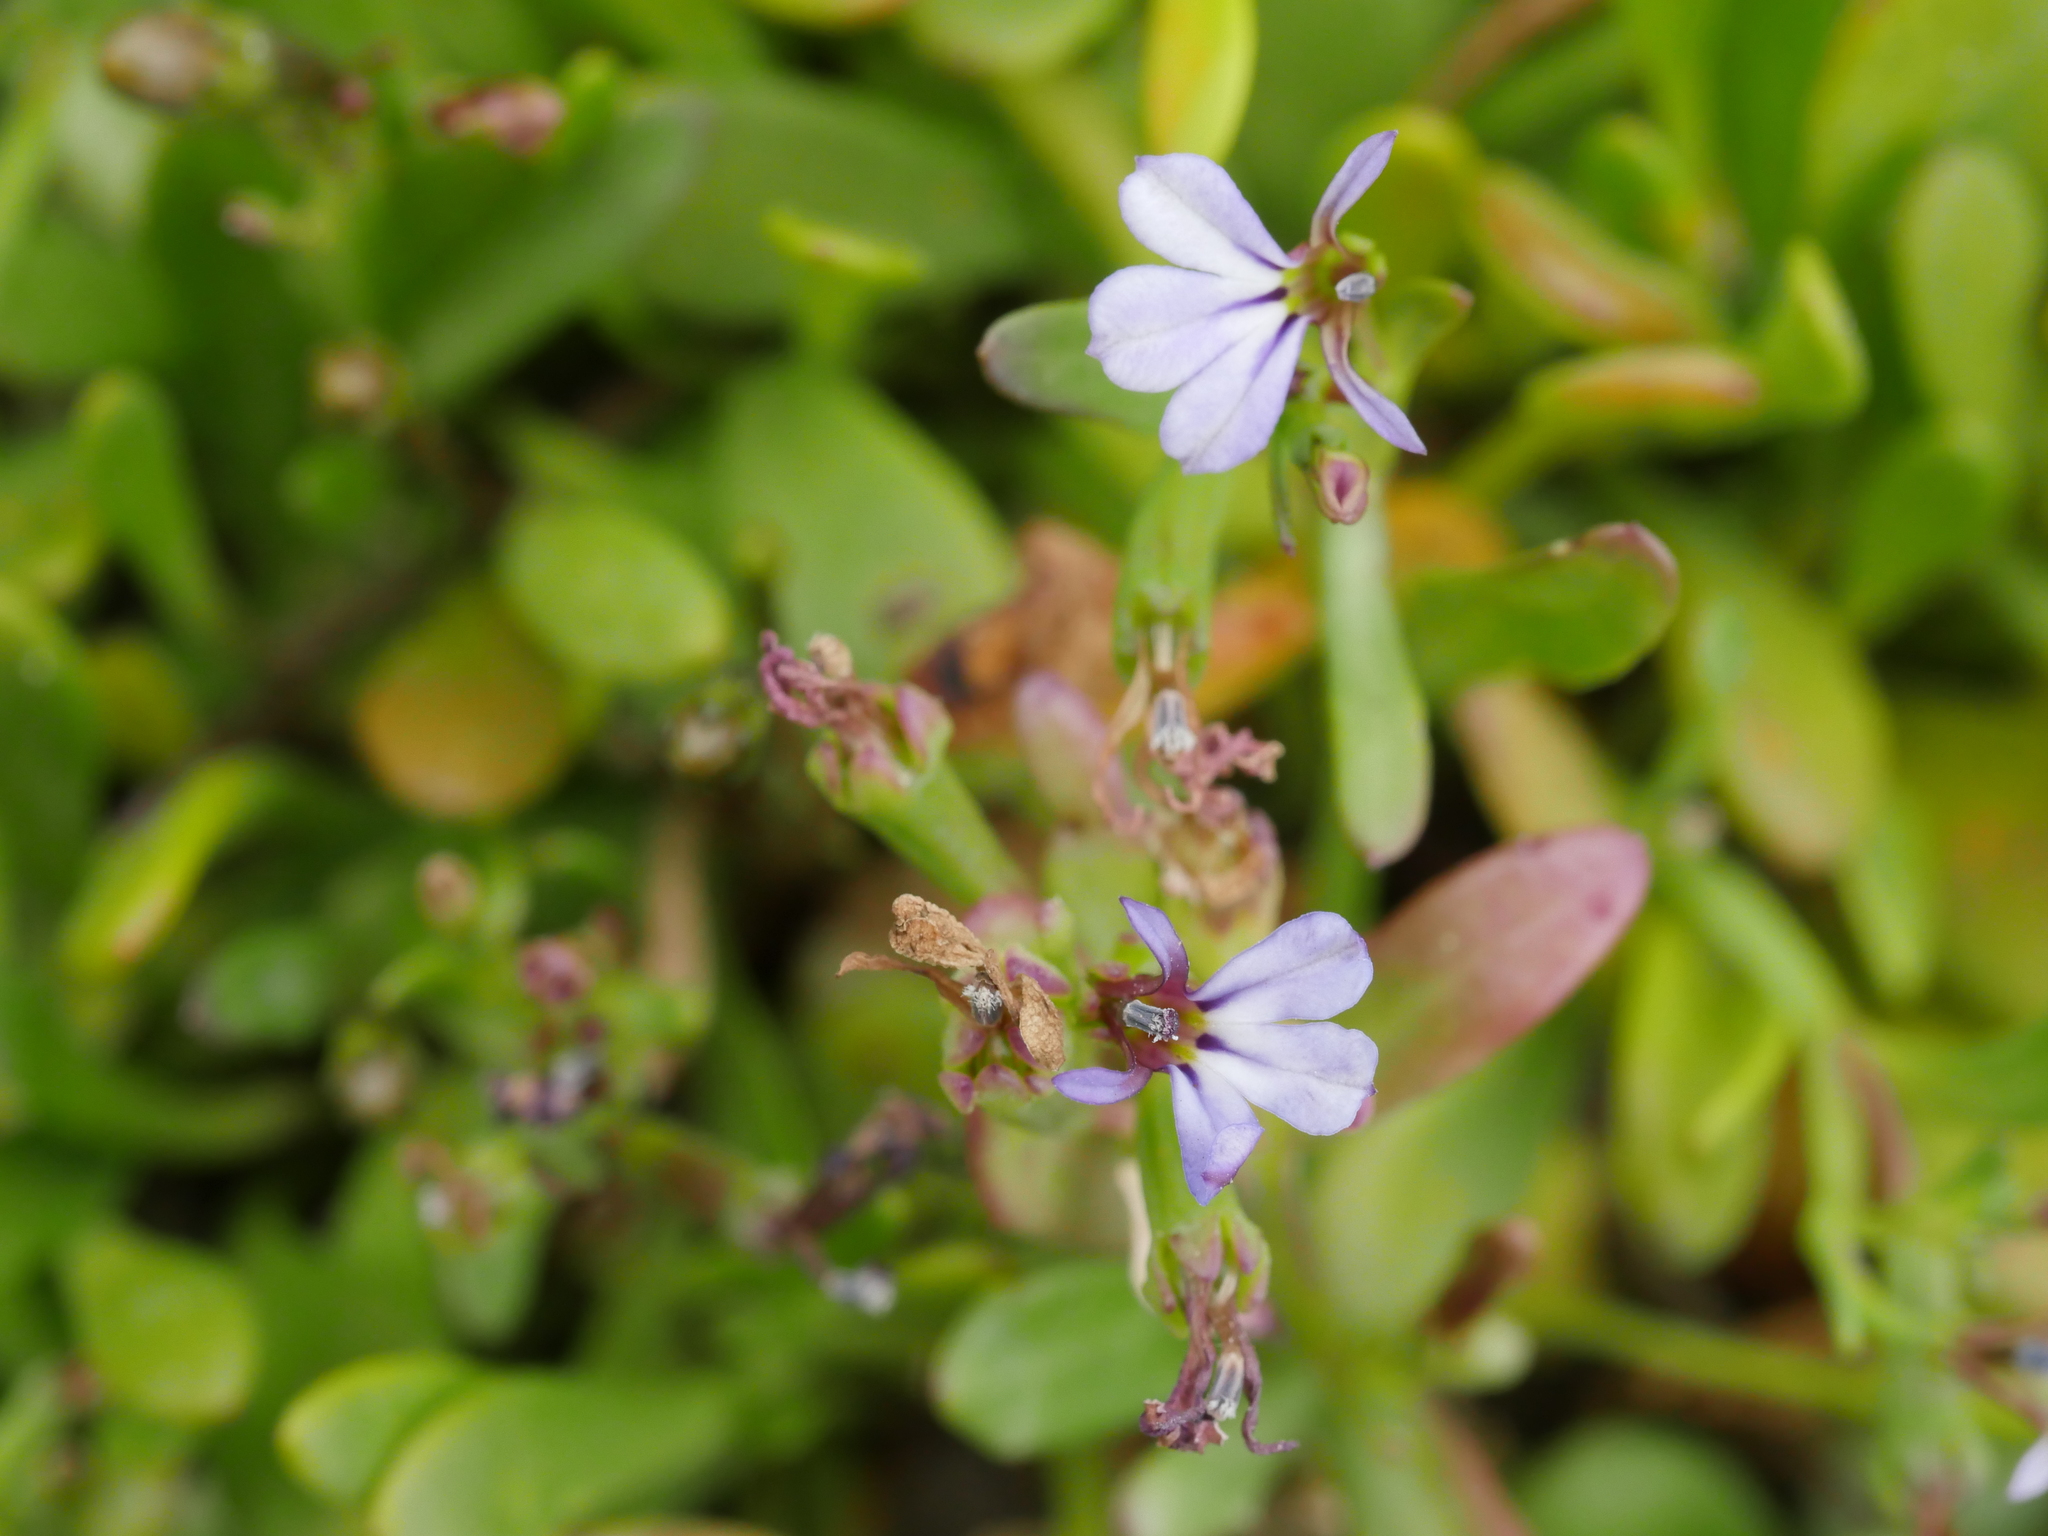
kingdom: Plantae
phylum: Tracheophyta
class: Magnoliopsida
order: Asterales
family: Campanulaceae
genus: Lobelia
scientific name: Lobelia anceps
